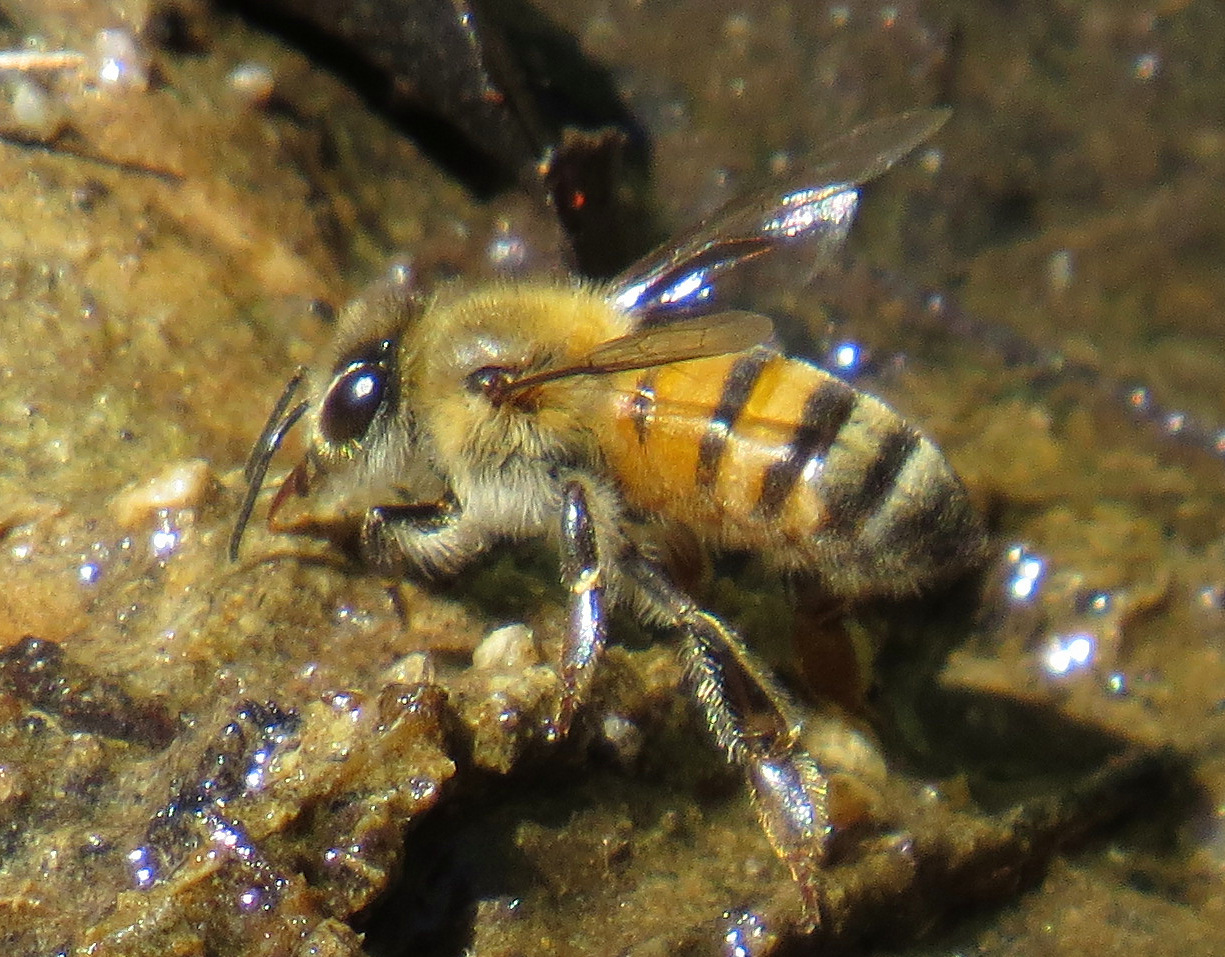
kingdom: Animalia
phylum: Arthropoda
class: Insecta
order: Hymenoptera
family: Apidae
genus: Apis
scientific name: Apis mellifera
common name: Honey bee
